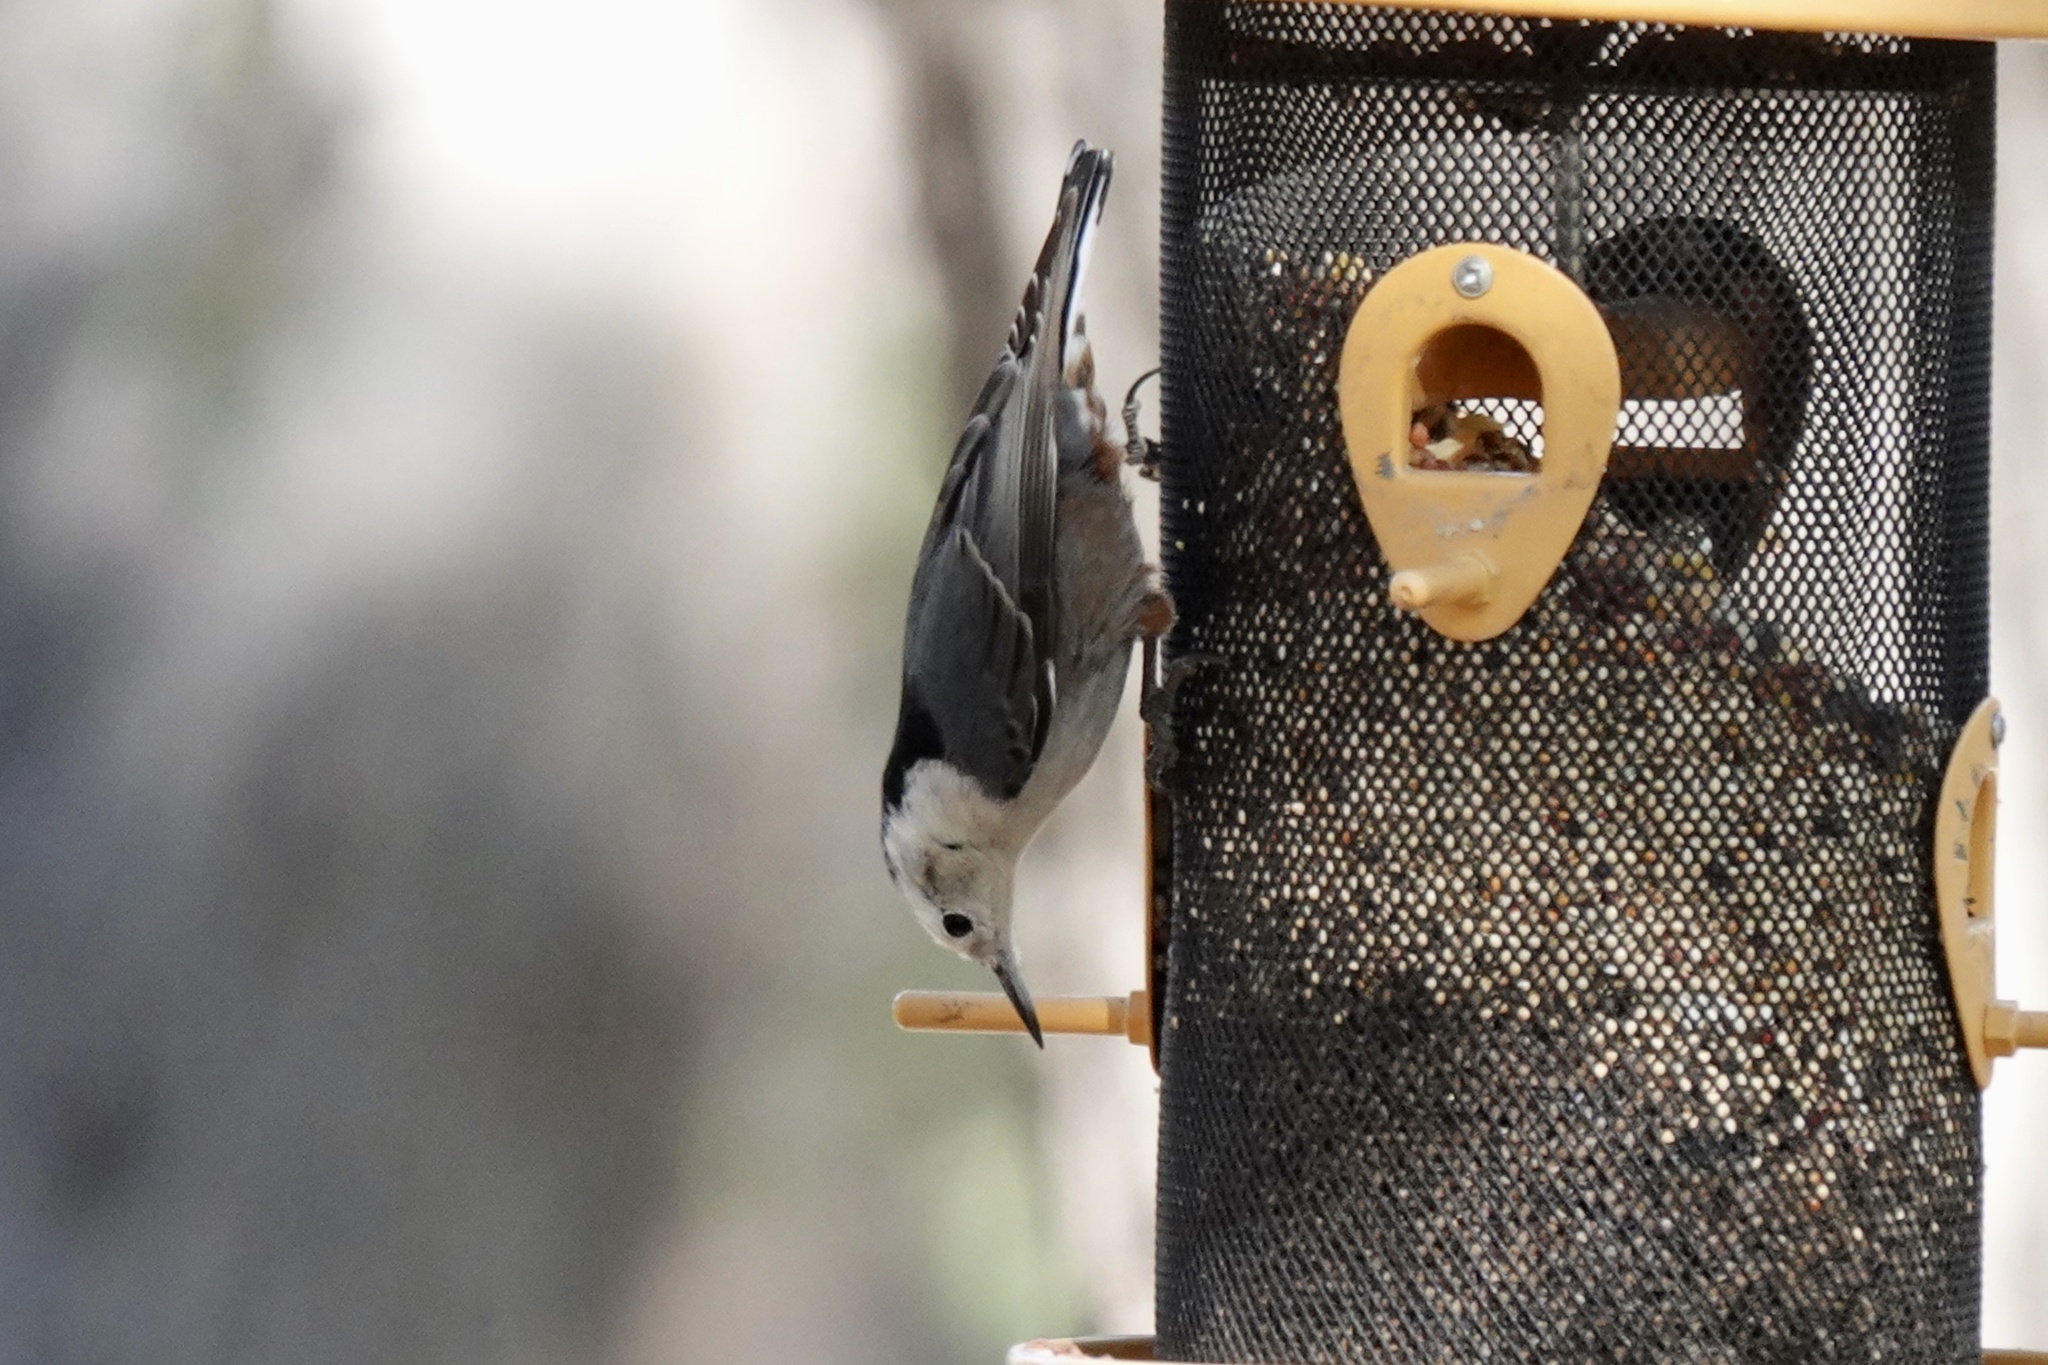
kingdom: Animalia
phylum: Chordata
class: Aves
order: Passeriformes
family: Sittidae
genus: Sitta
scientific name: Sitta carolinensis
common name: White-breasted nuthatch
